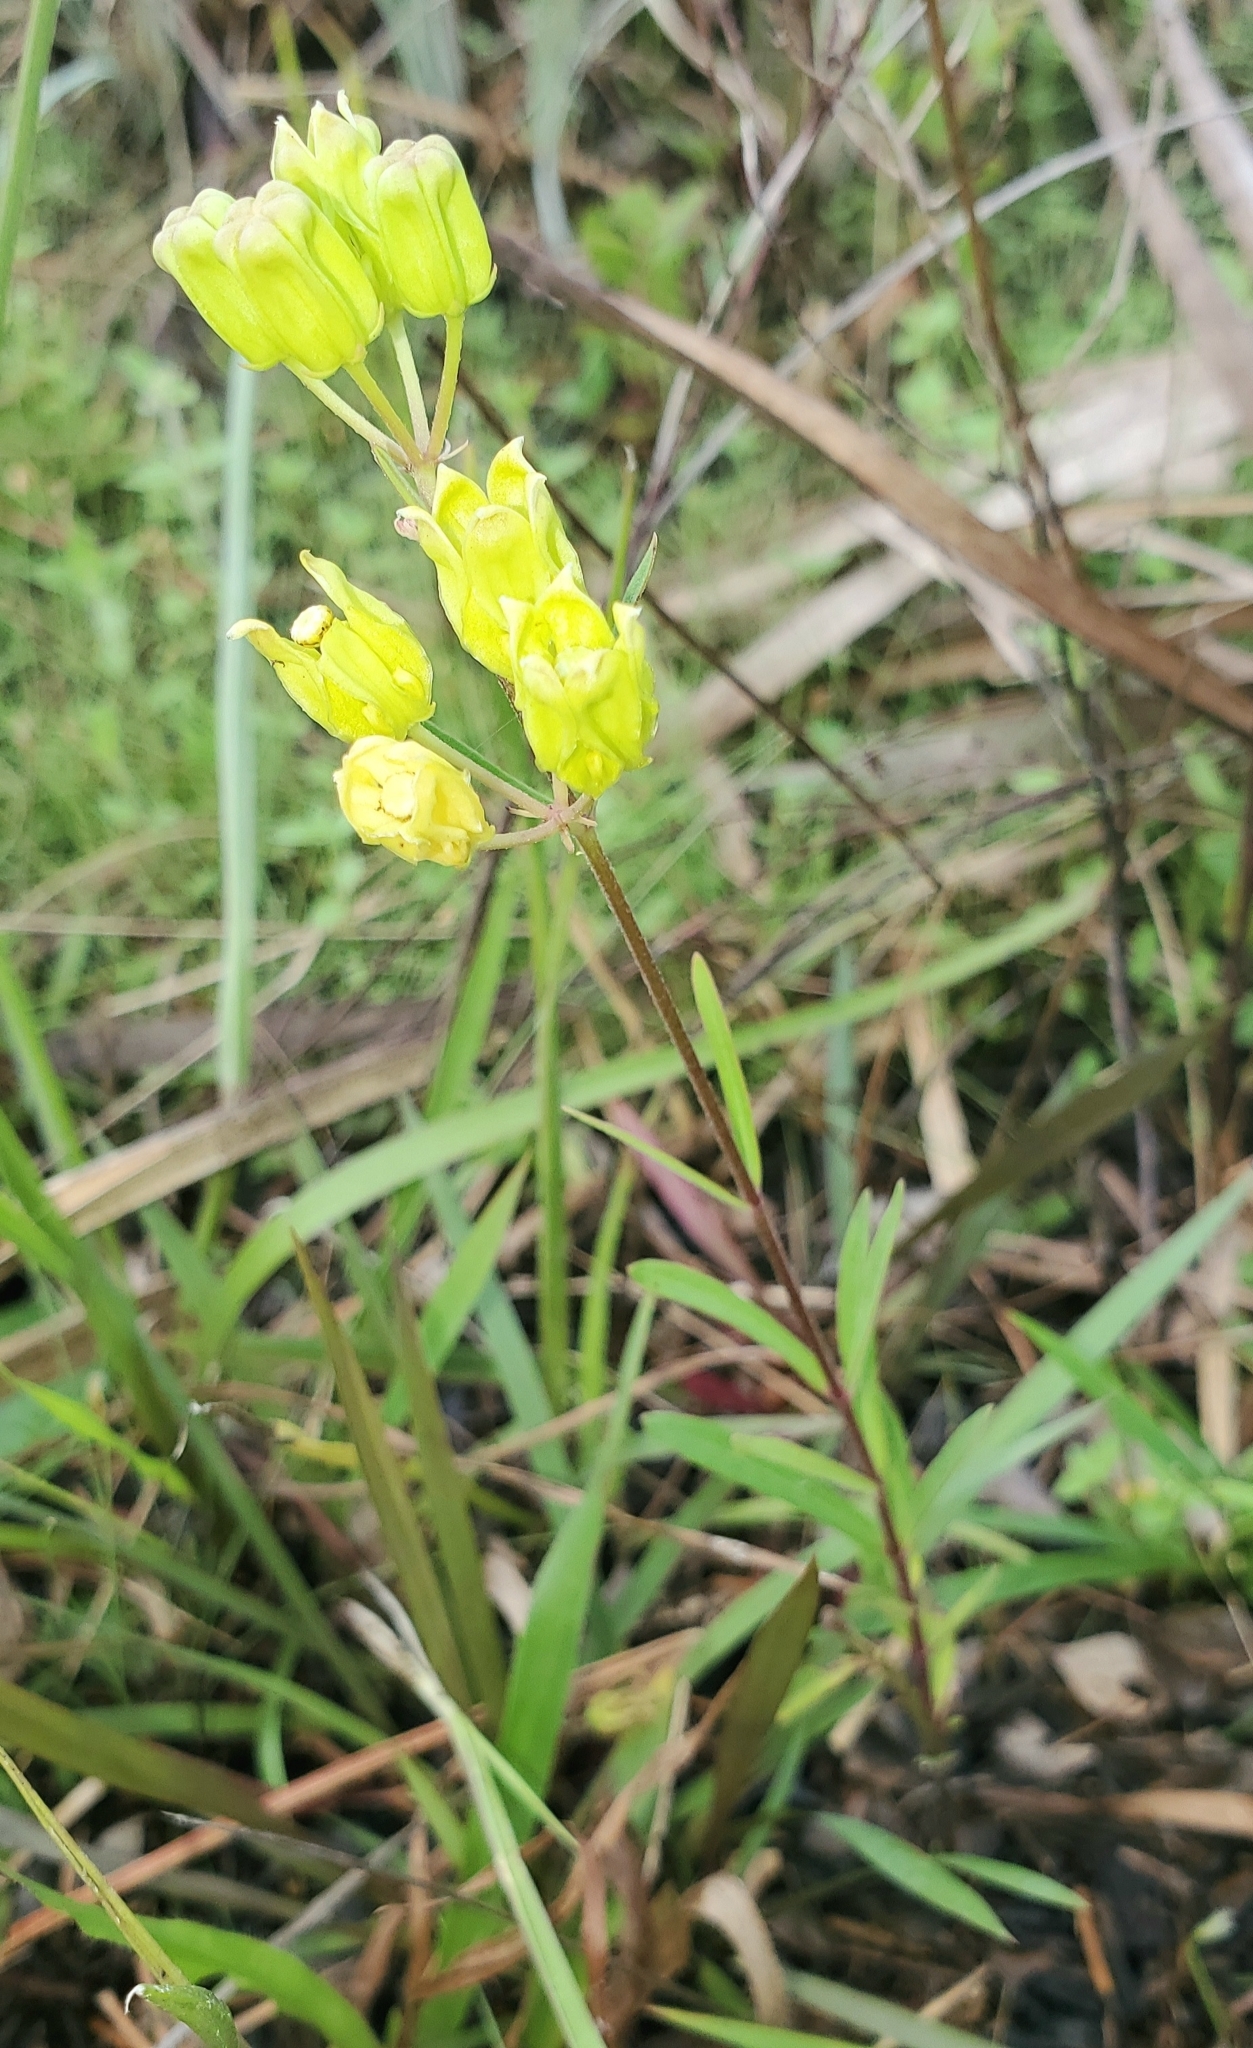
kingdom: Plantae
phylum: Tracheophyta
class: Magnoliopsida
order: Gentianales
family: Apocynaceae
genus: Asclepias
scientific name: Asclepias pedicellata
